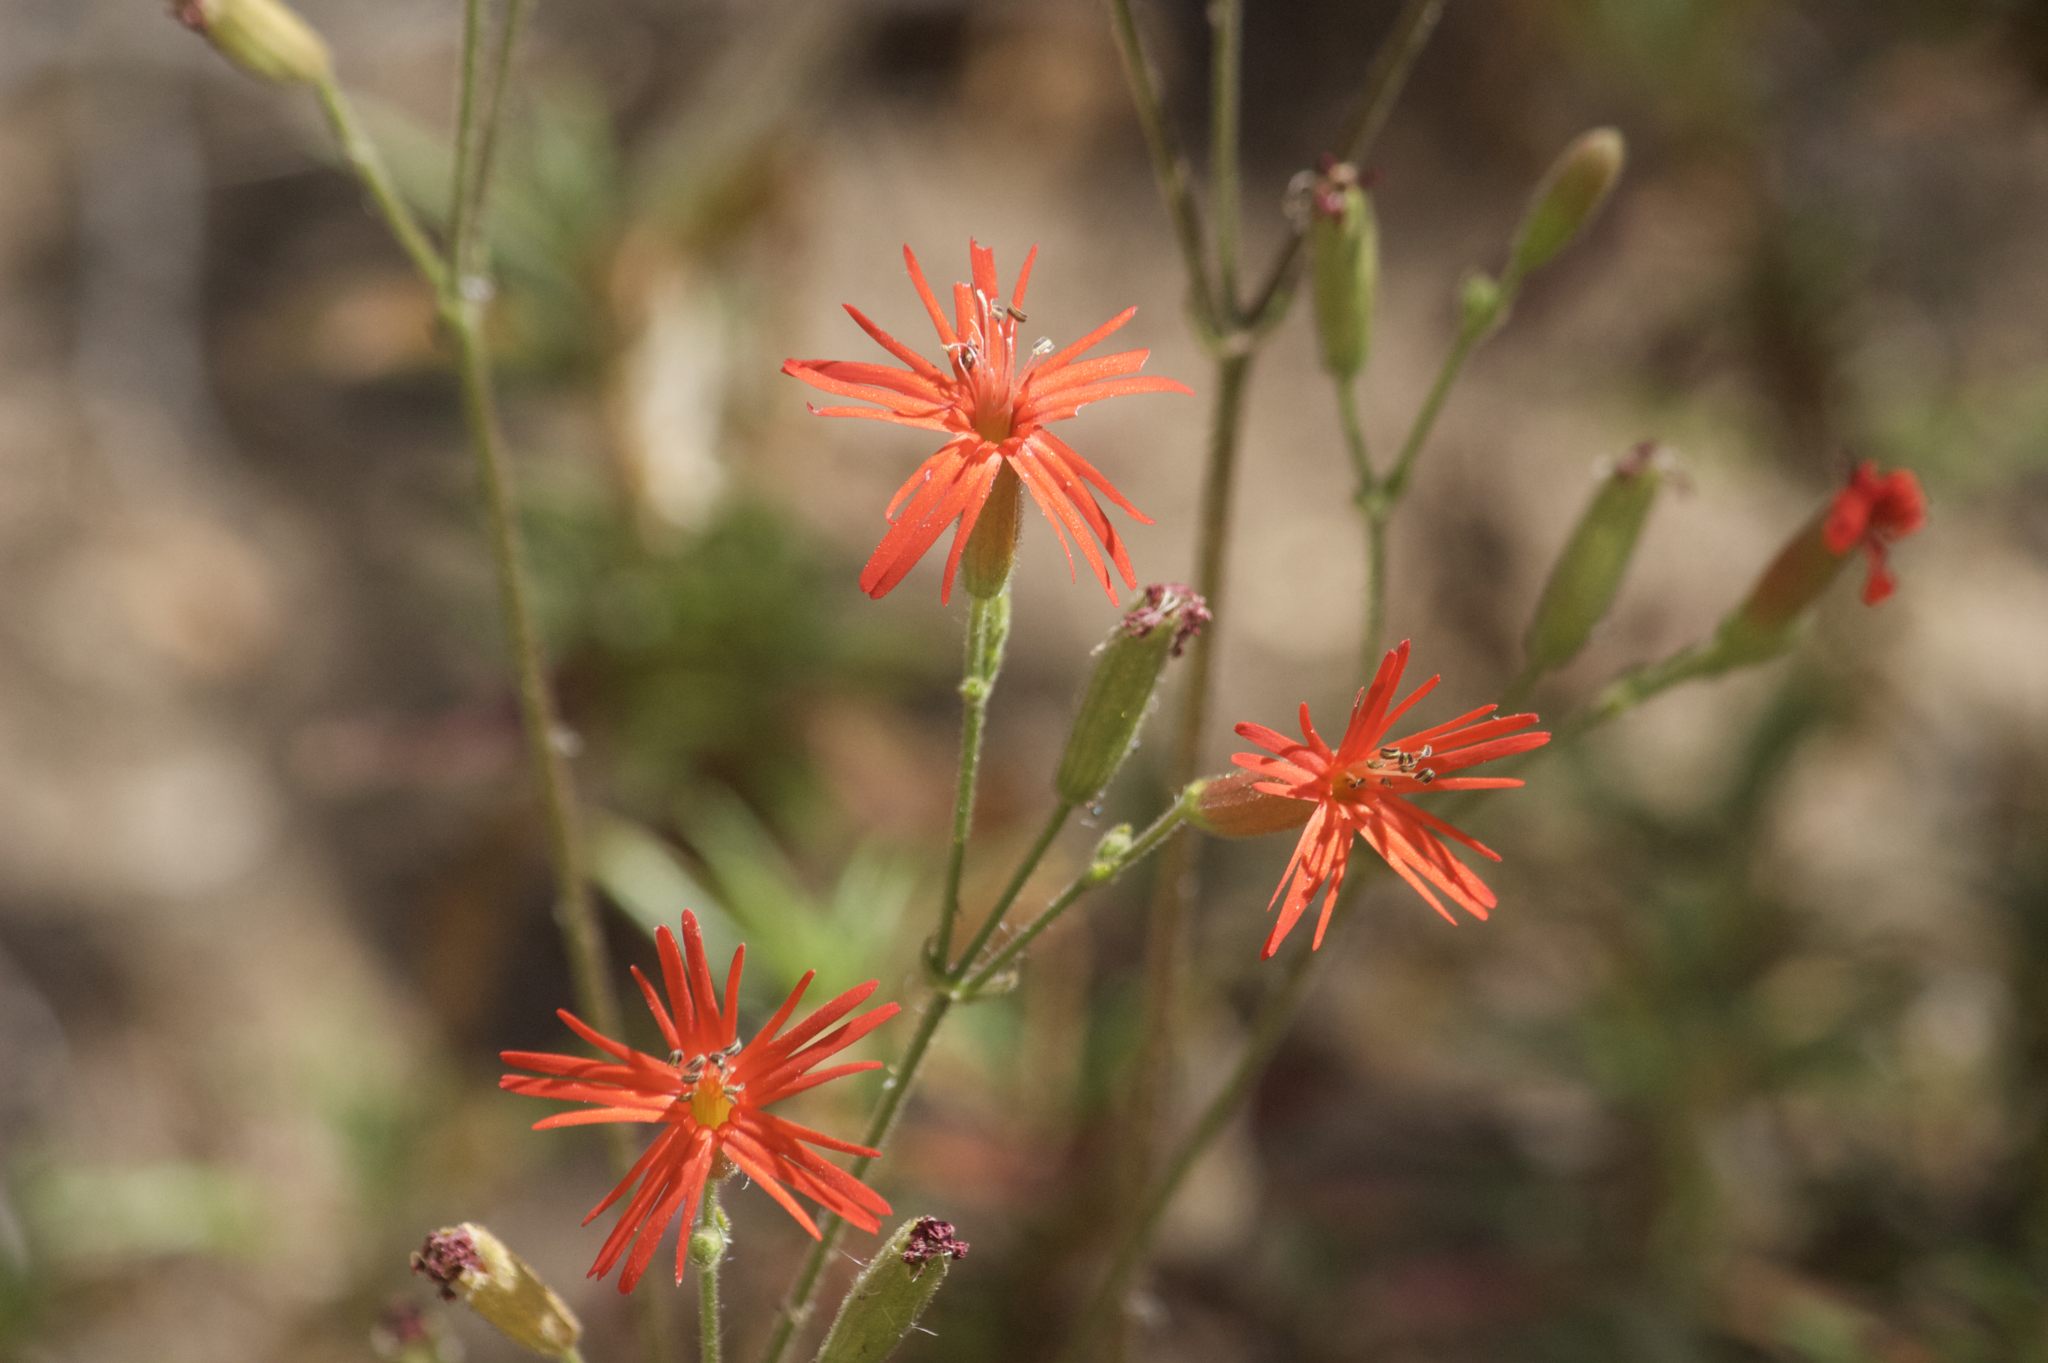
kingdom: Plantae
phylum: Tracheophyta
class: Magnoliopsida
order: Caryophyllales
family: Caryophyllaceae
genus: Silene
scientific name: Silene laciniata
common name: Indian-pink
